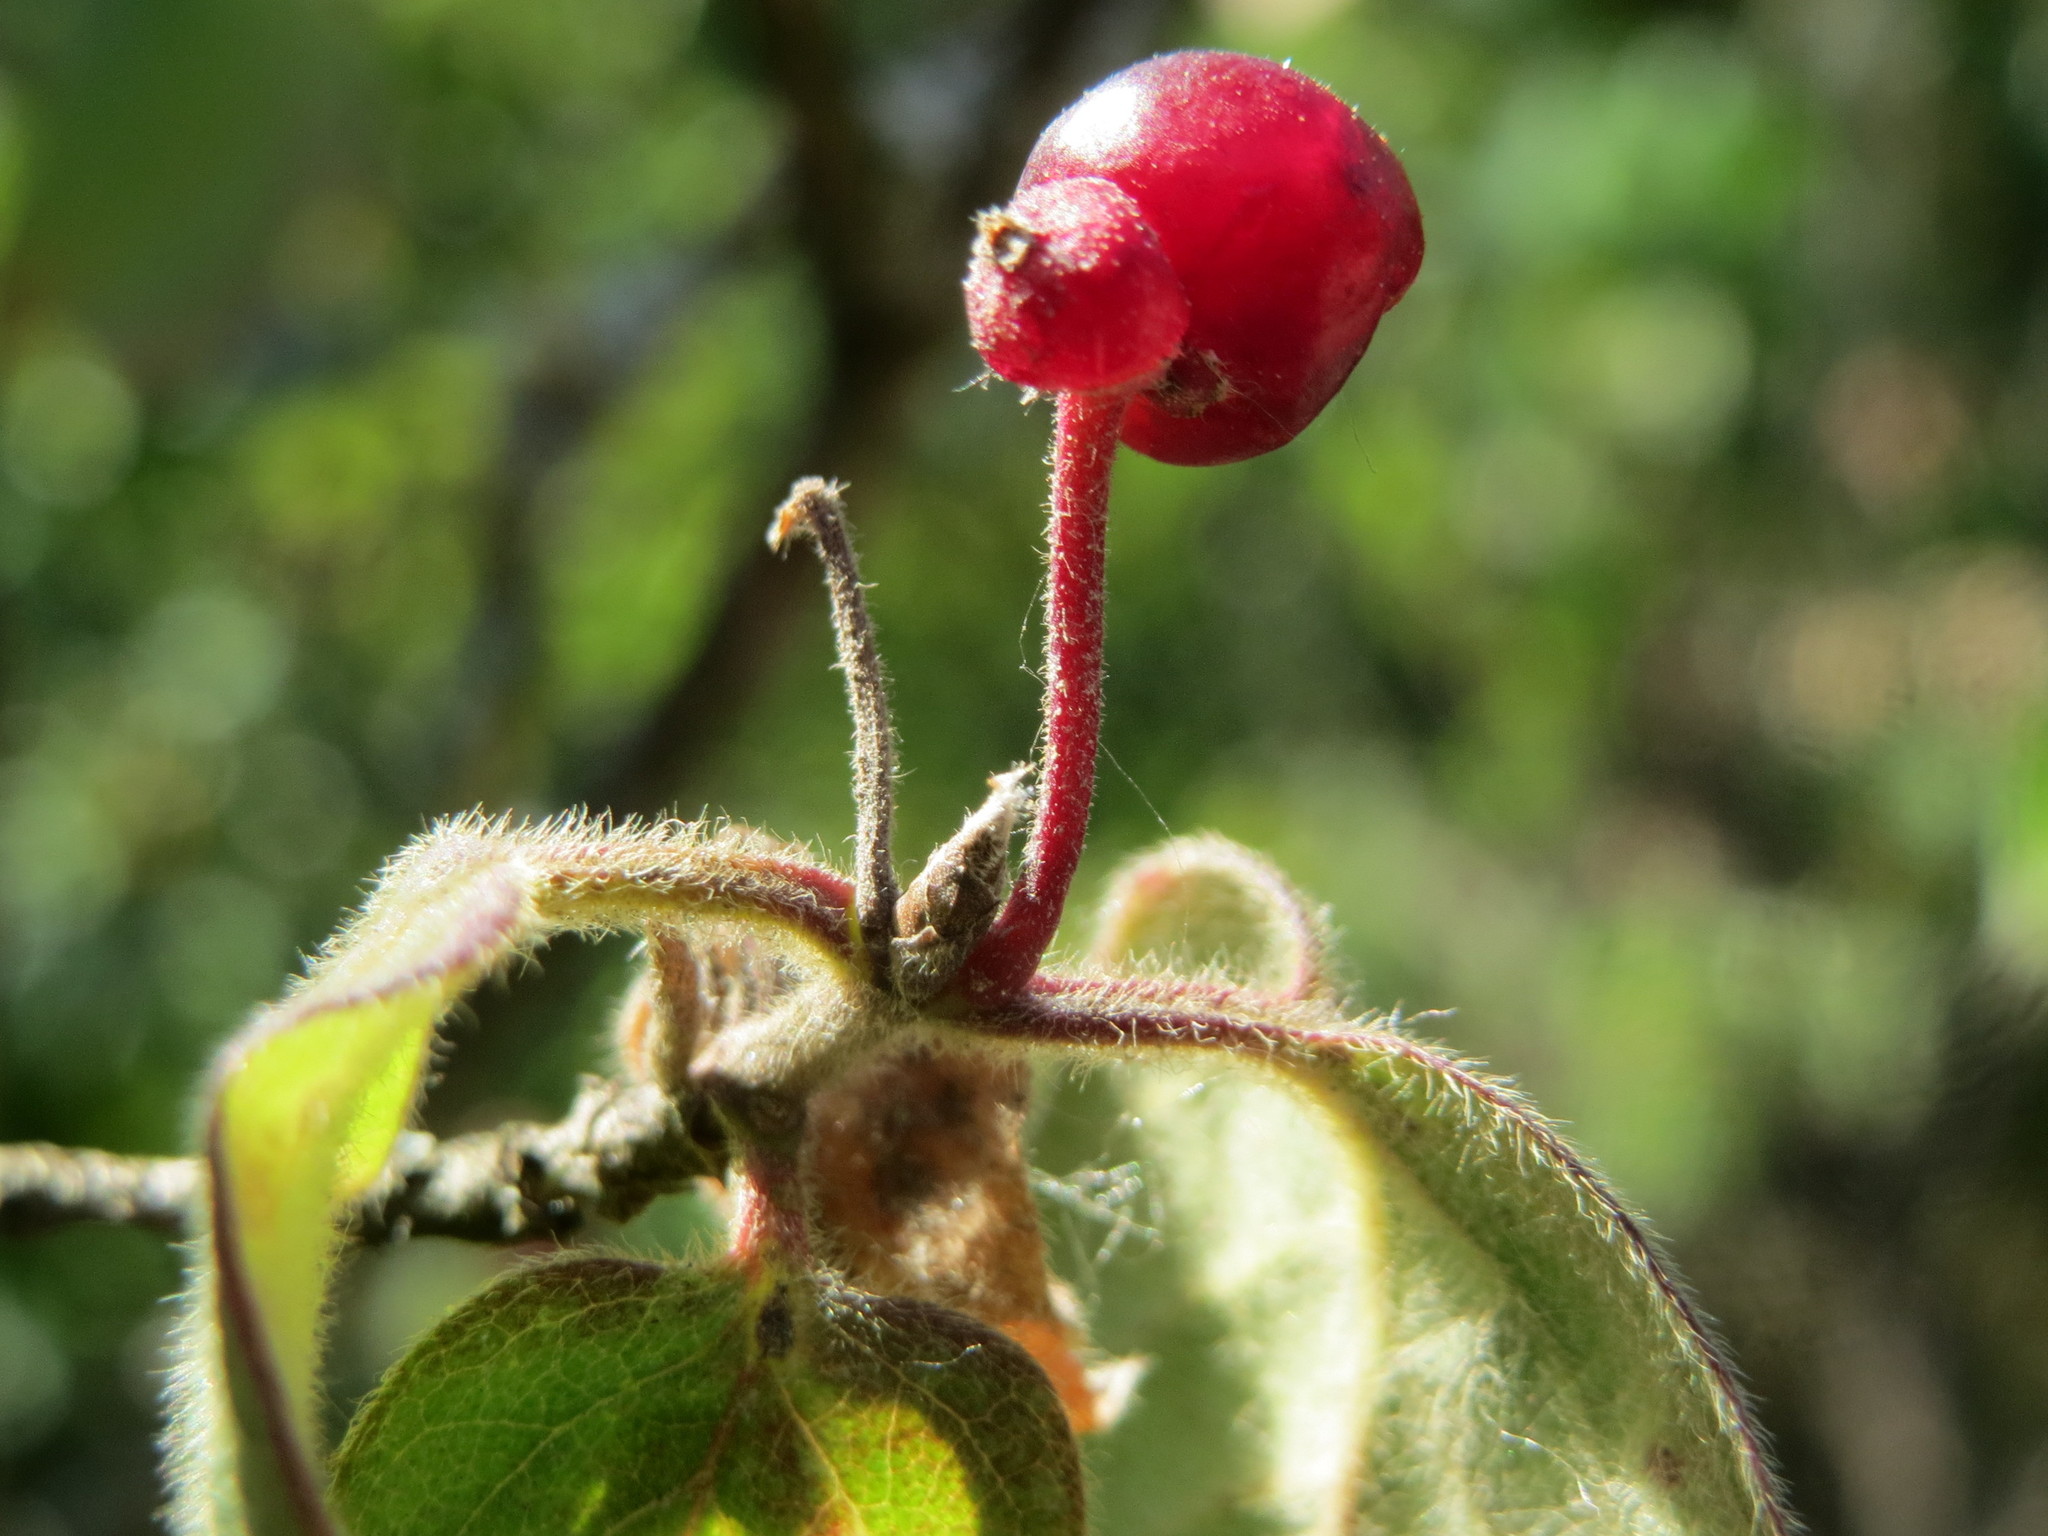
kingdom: Plantae
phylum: Tracheophyta
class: Magnoliopsida
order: Dipsacales
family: Caprifoliaceae
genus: Lonicera
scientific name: Lonicera xylosteum
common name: Fly honeysuckle
